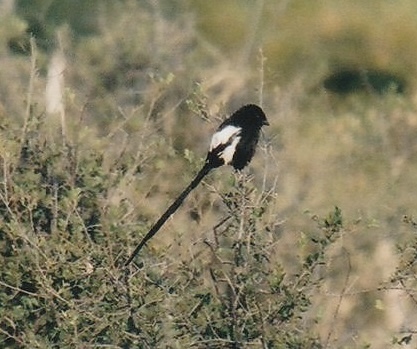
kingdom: Animalia
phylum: Chordata
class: Aves
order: Passeriformes
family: Laniidae
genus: Urolestes
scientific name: Urolestes melanoleucus
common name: Magpie shrike
